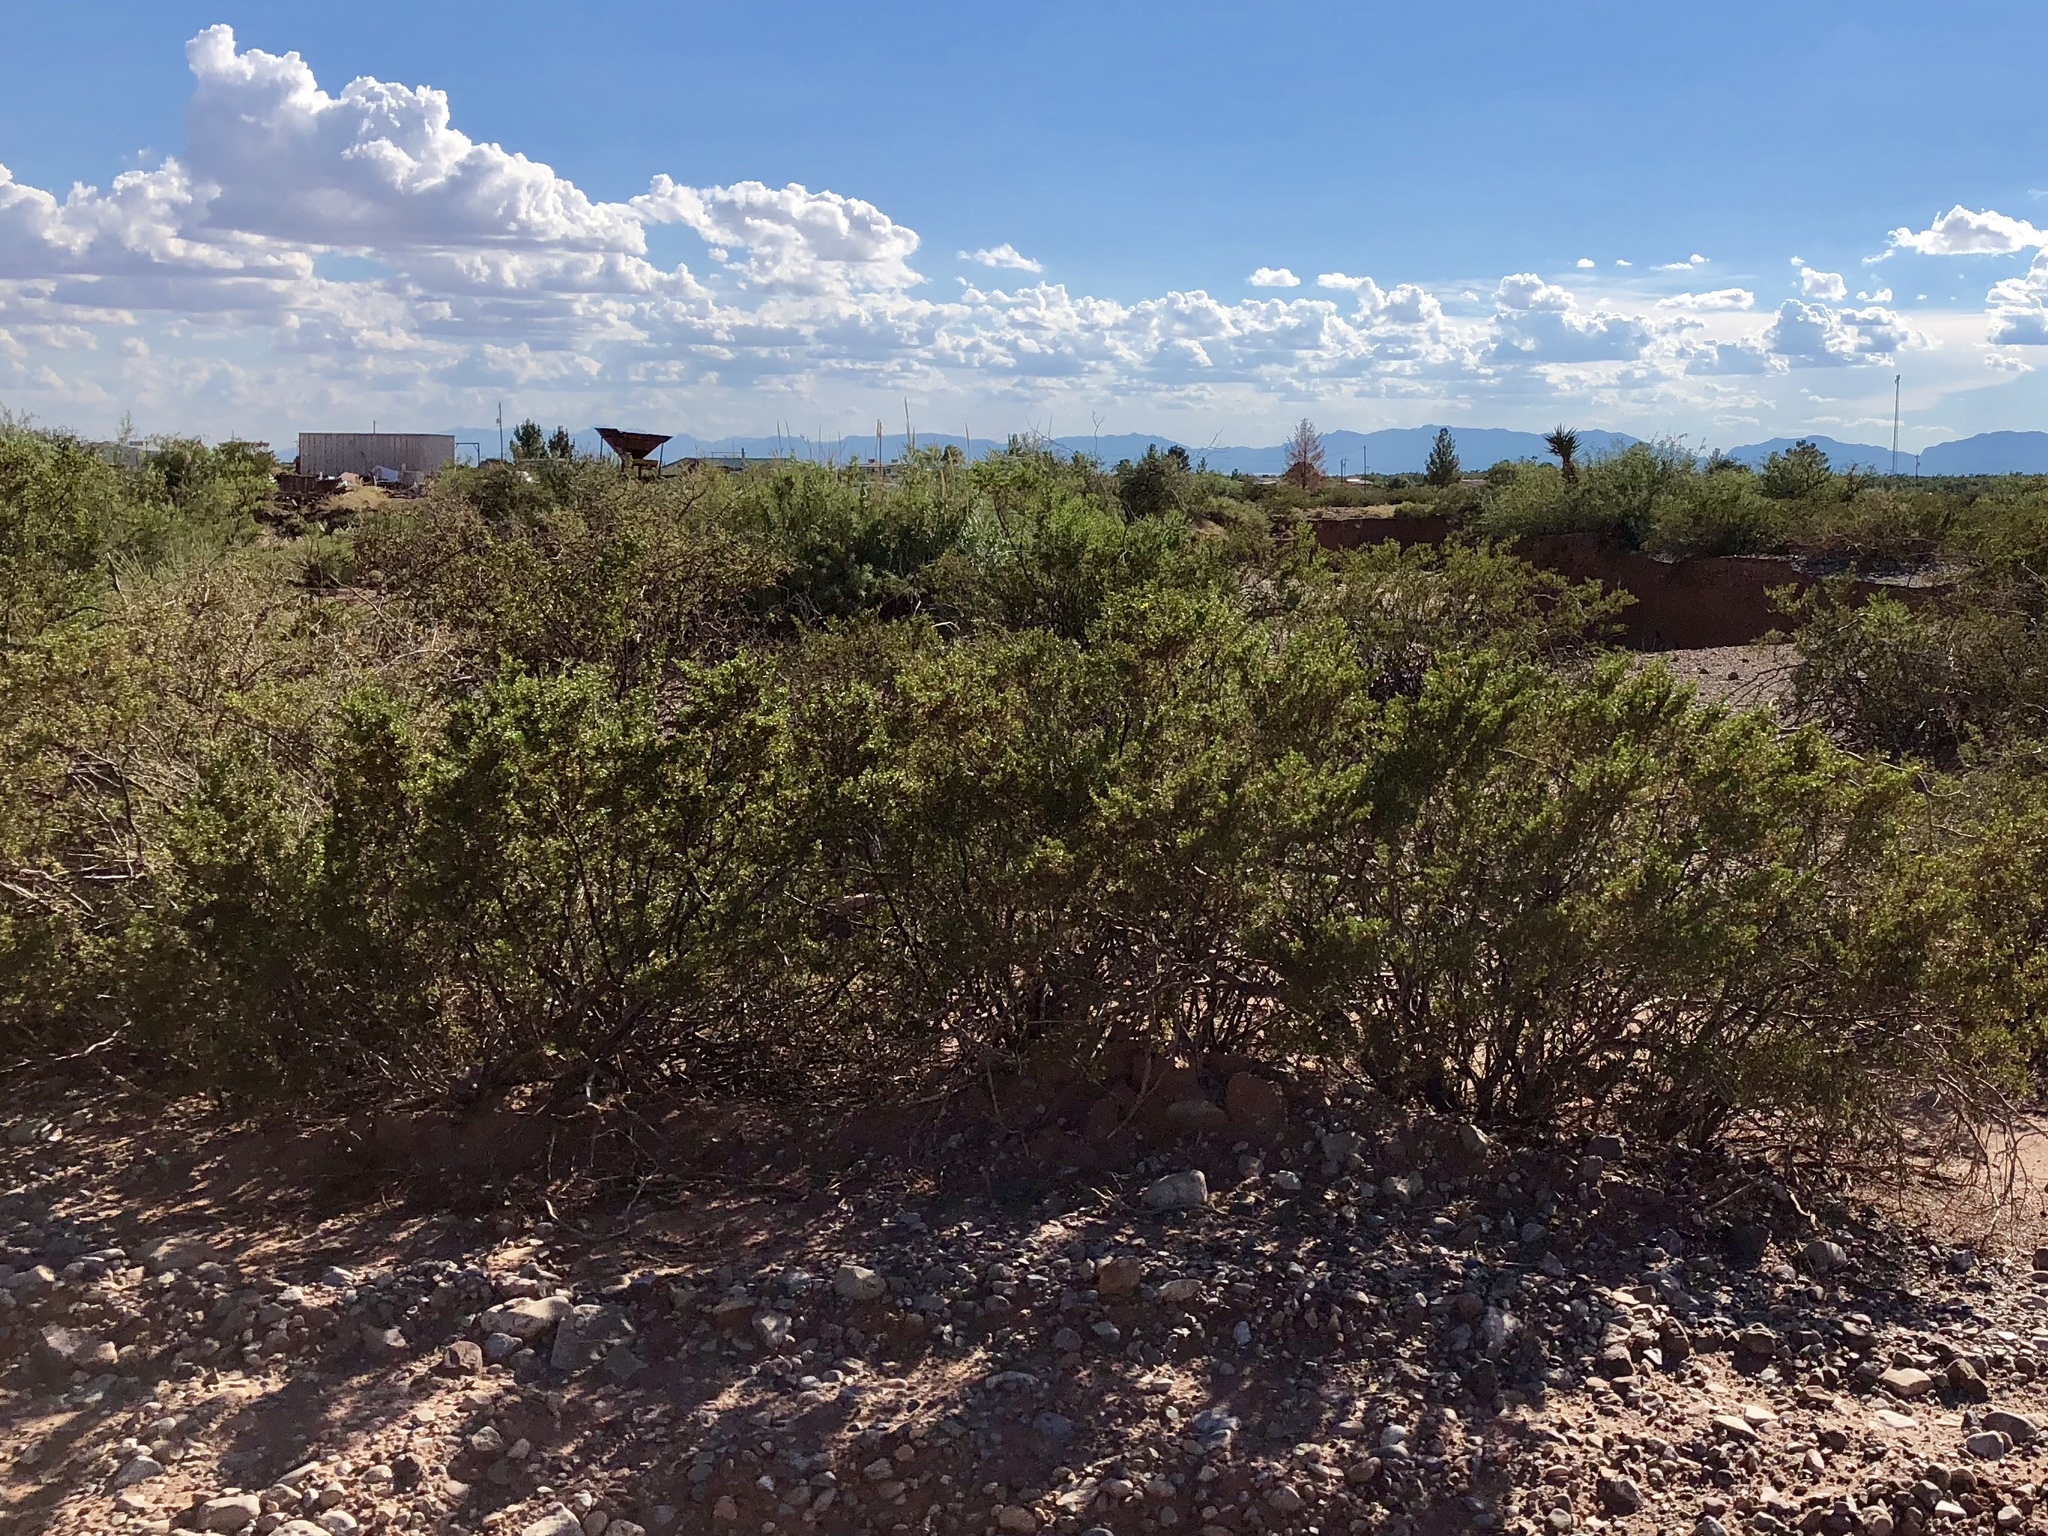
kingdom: Plantae
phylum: Tracheophyta
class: Magnoliopsida
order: Zygophyllales
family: Zygophyllaceae
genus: Larrea
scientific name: Larrea tridentata
